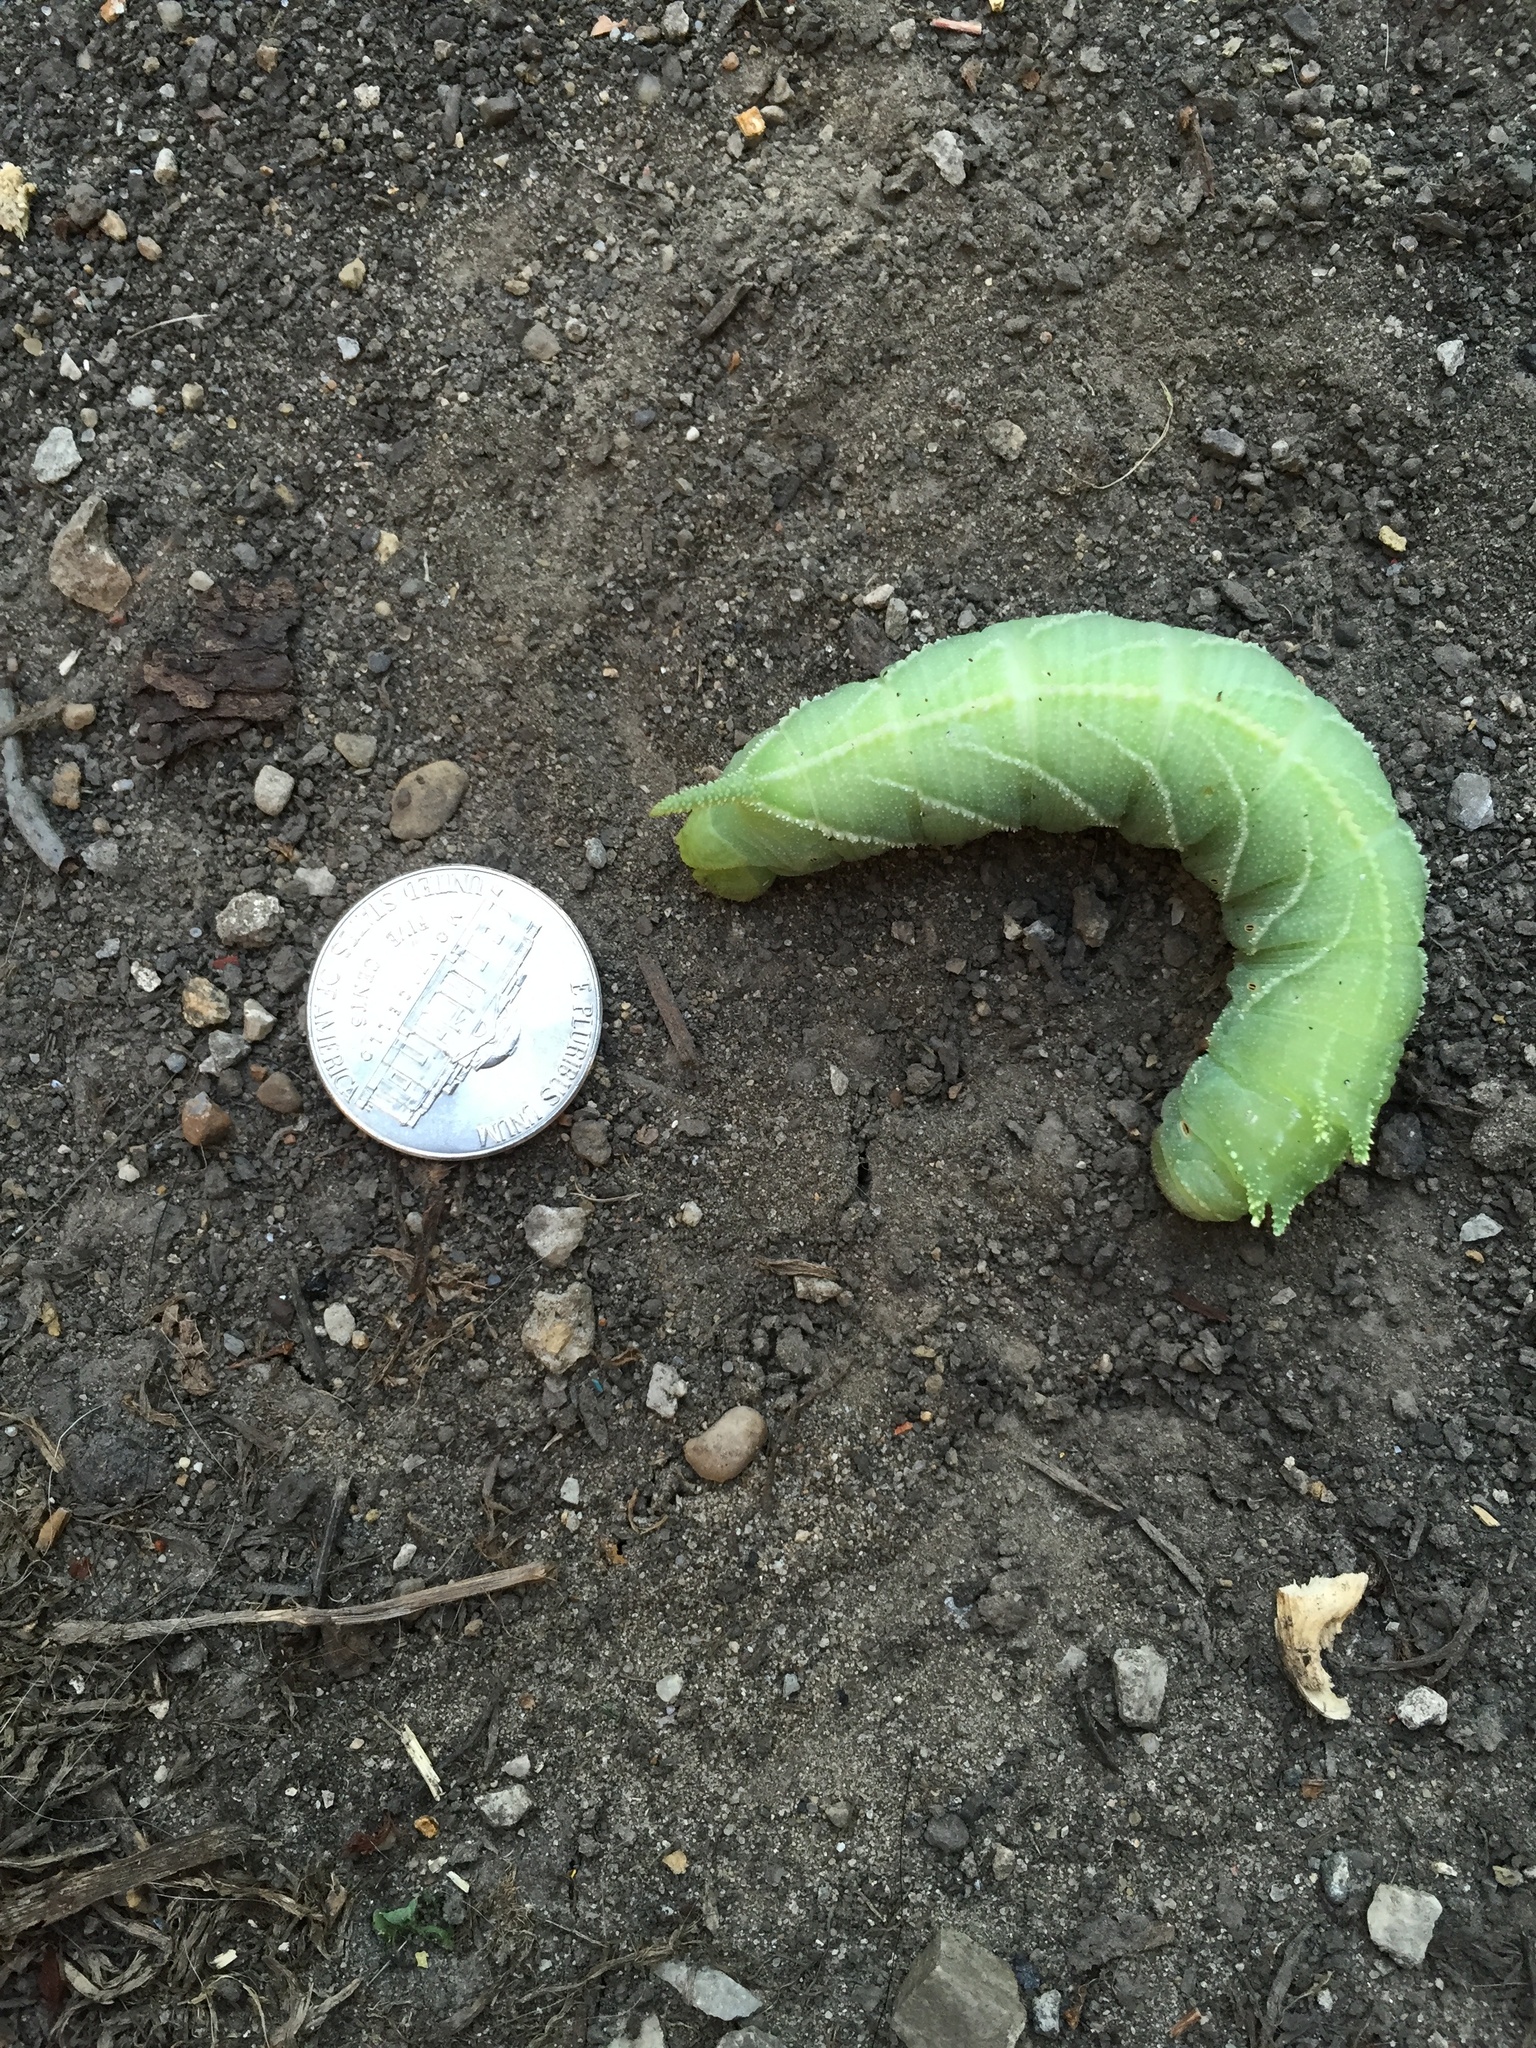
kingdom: Animalia
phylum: Arthropoda
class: Insecta
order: Lepidoptera
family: Sphingidae
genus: Ceratomia
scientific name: Ceratomia amyntor
